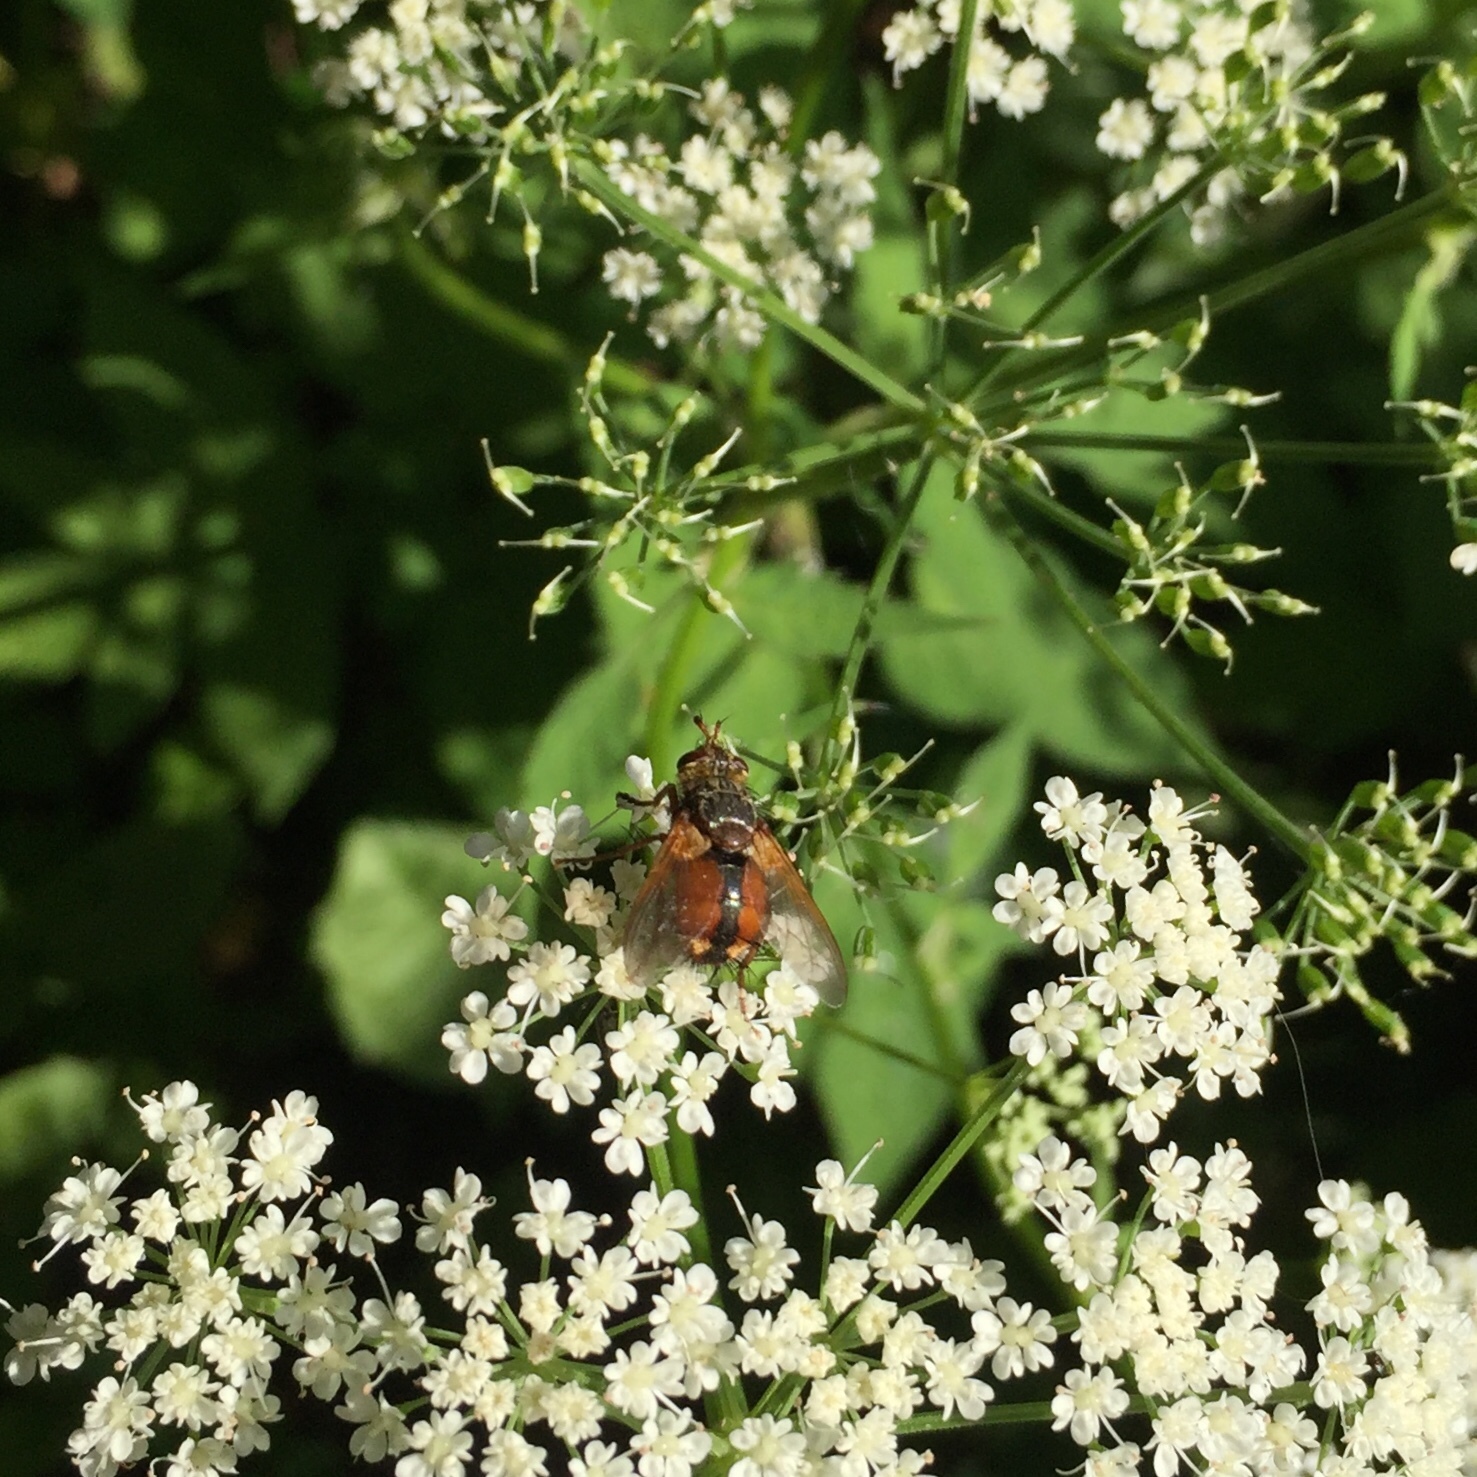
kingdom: Animalia
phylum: Arthropoda
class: Insecta
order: Diptera
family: Tachinidae
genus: Tachina
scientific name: Tachina fera
